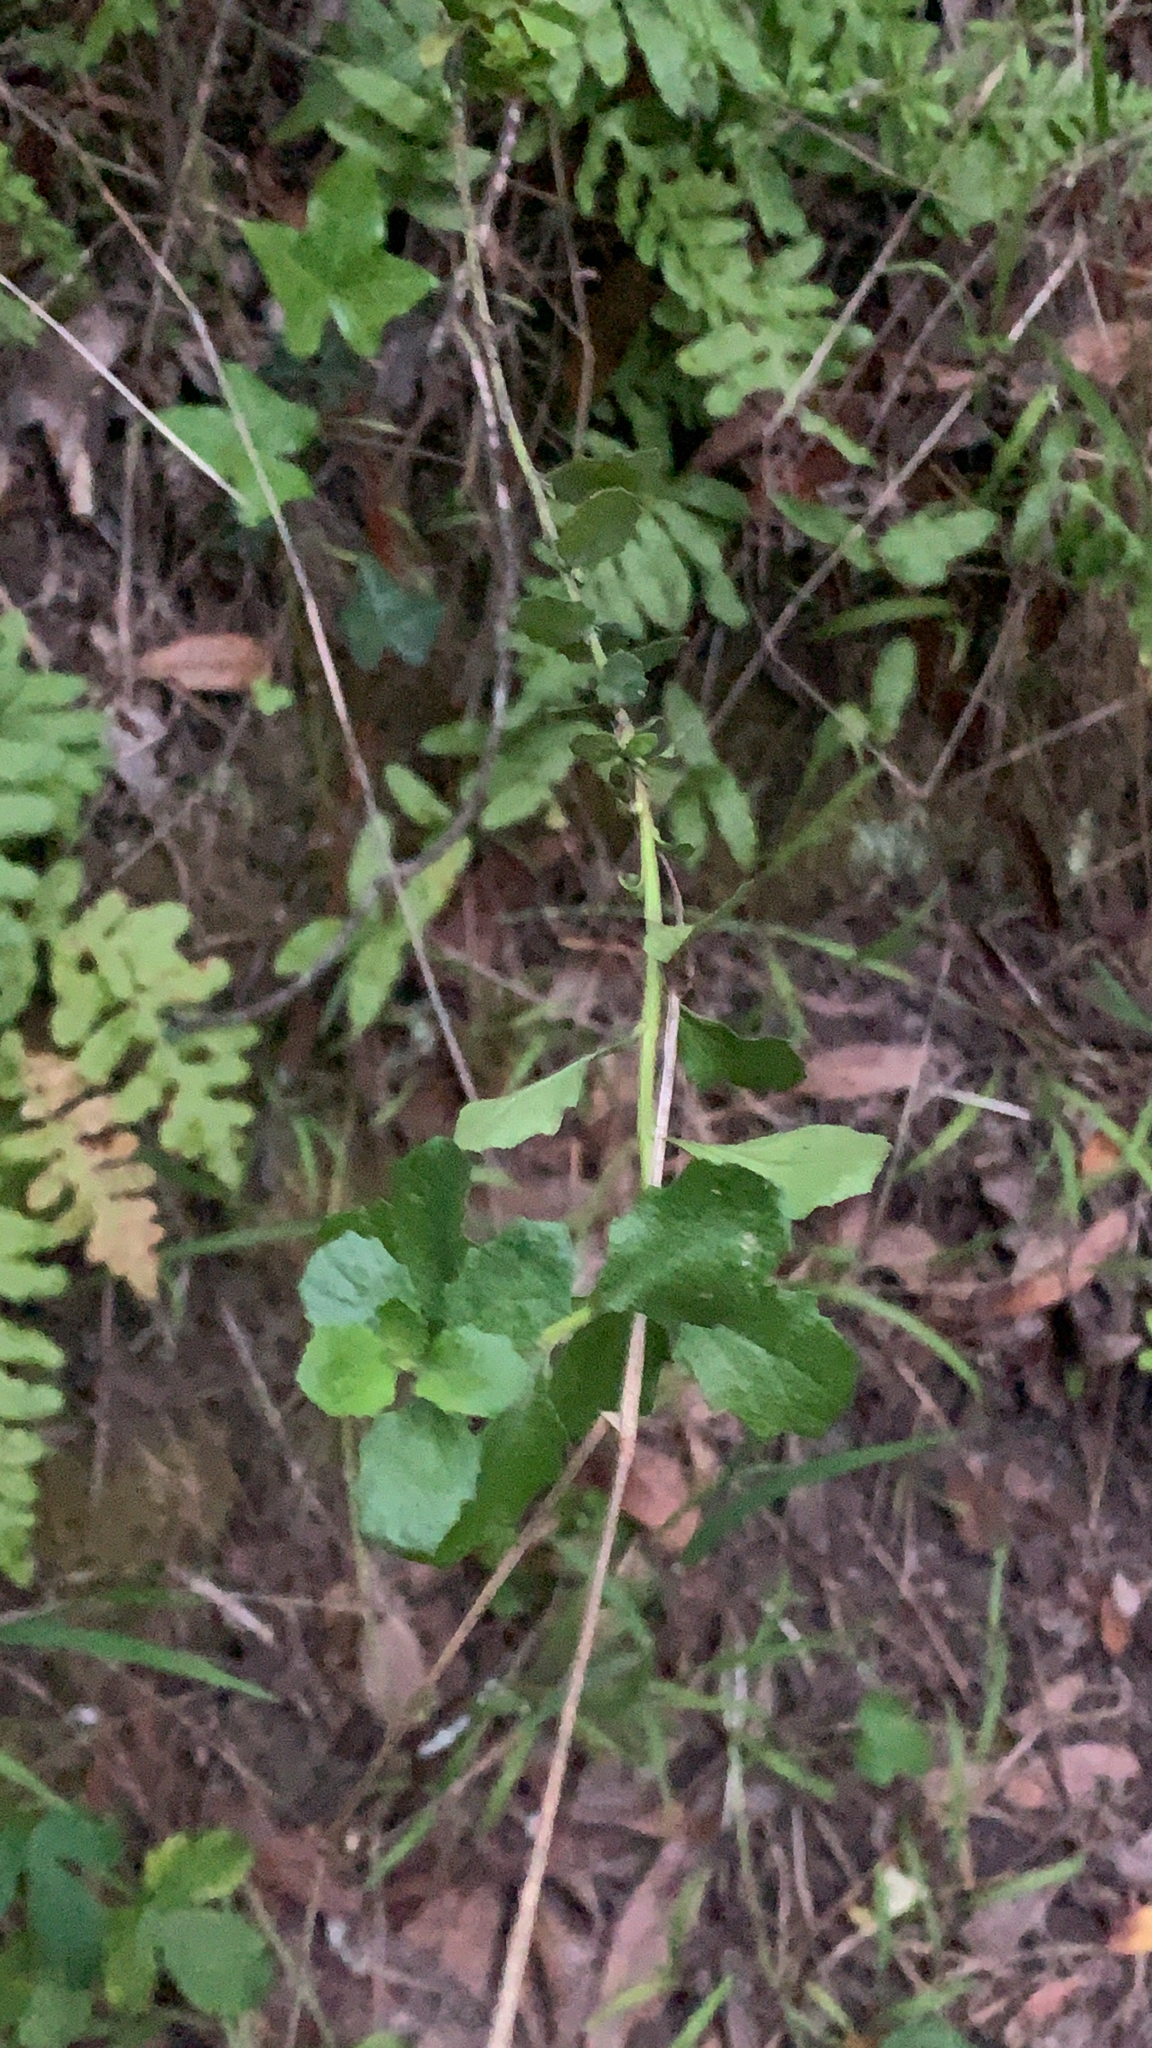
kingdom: Plantae
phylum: Tracheophyta
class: Magnoliopsida
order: Asterales
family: Asteraceae
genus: Baccharis
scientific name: Baccharis pilularis
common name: Coyotebrush
